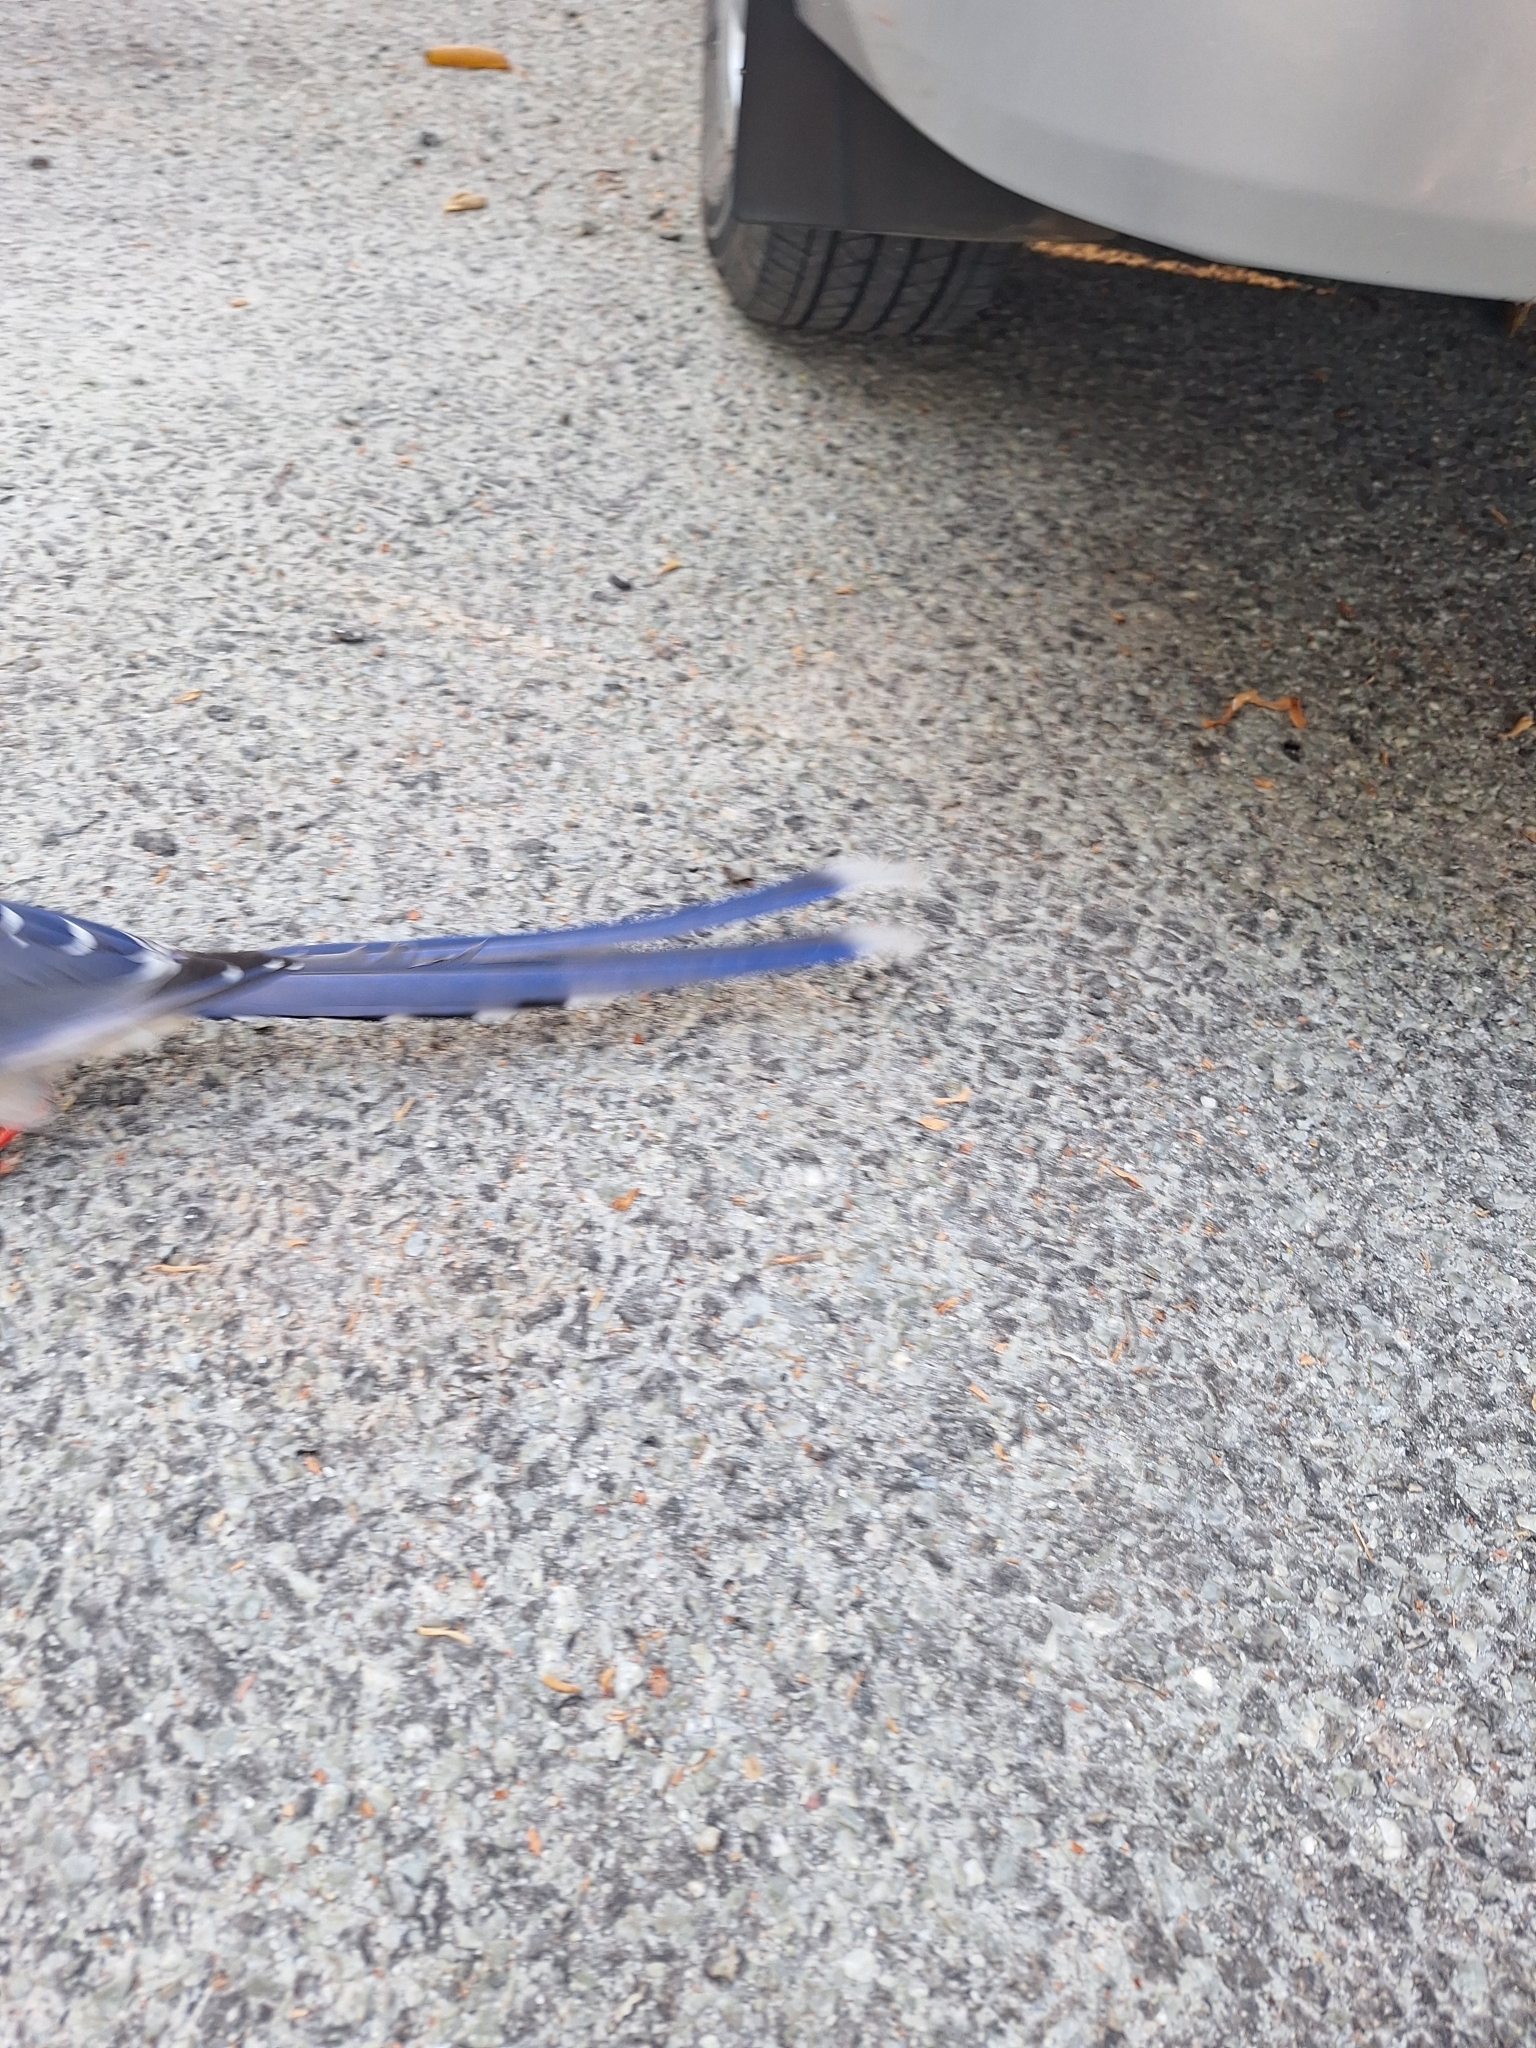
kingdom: Animalia
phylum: Chordata
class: Aves
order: Passeriformes
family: Corvidae
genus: Urocissa
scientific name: Urocissa erythroryncha
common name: Red-billed blue magpie
